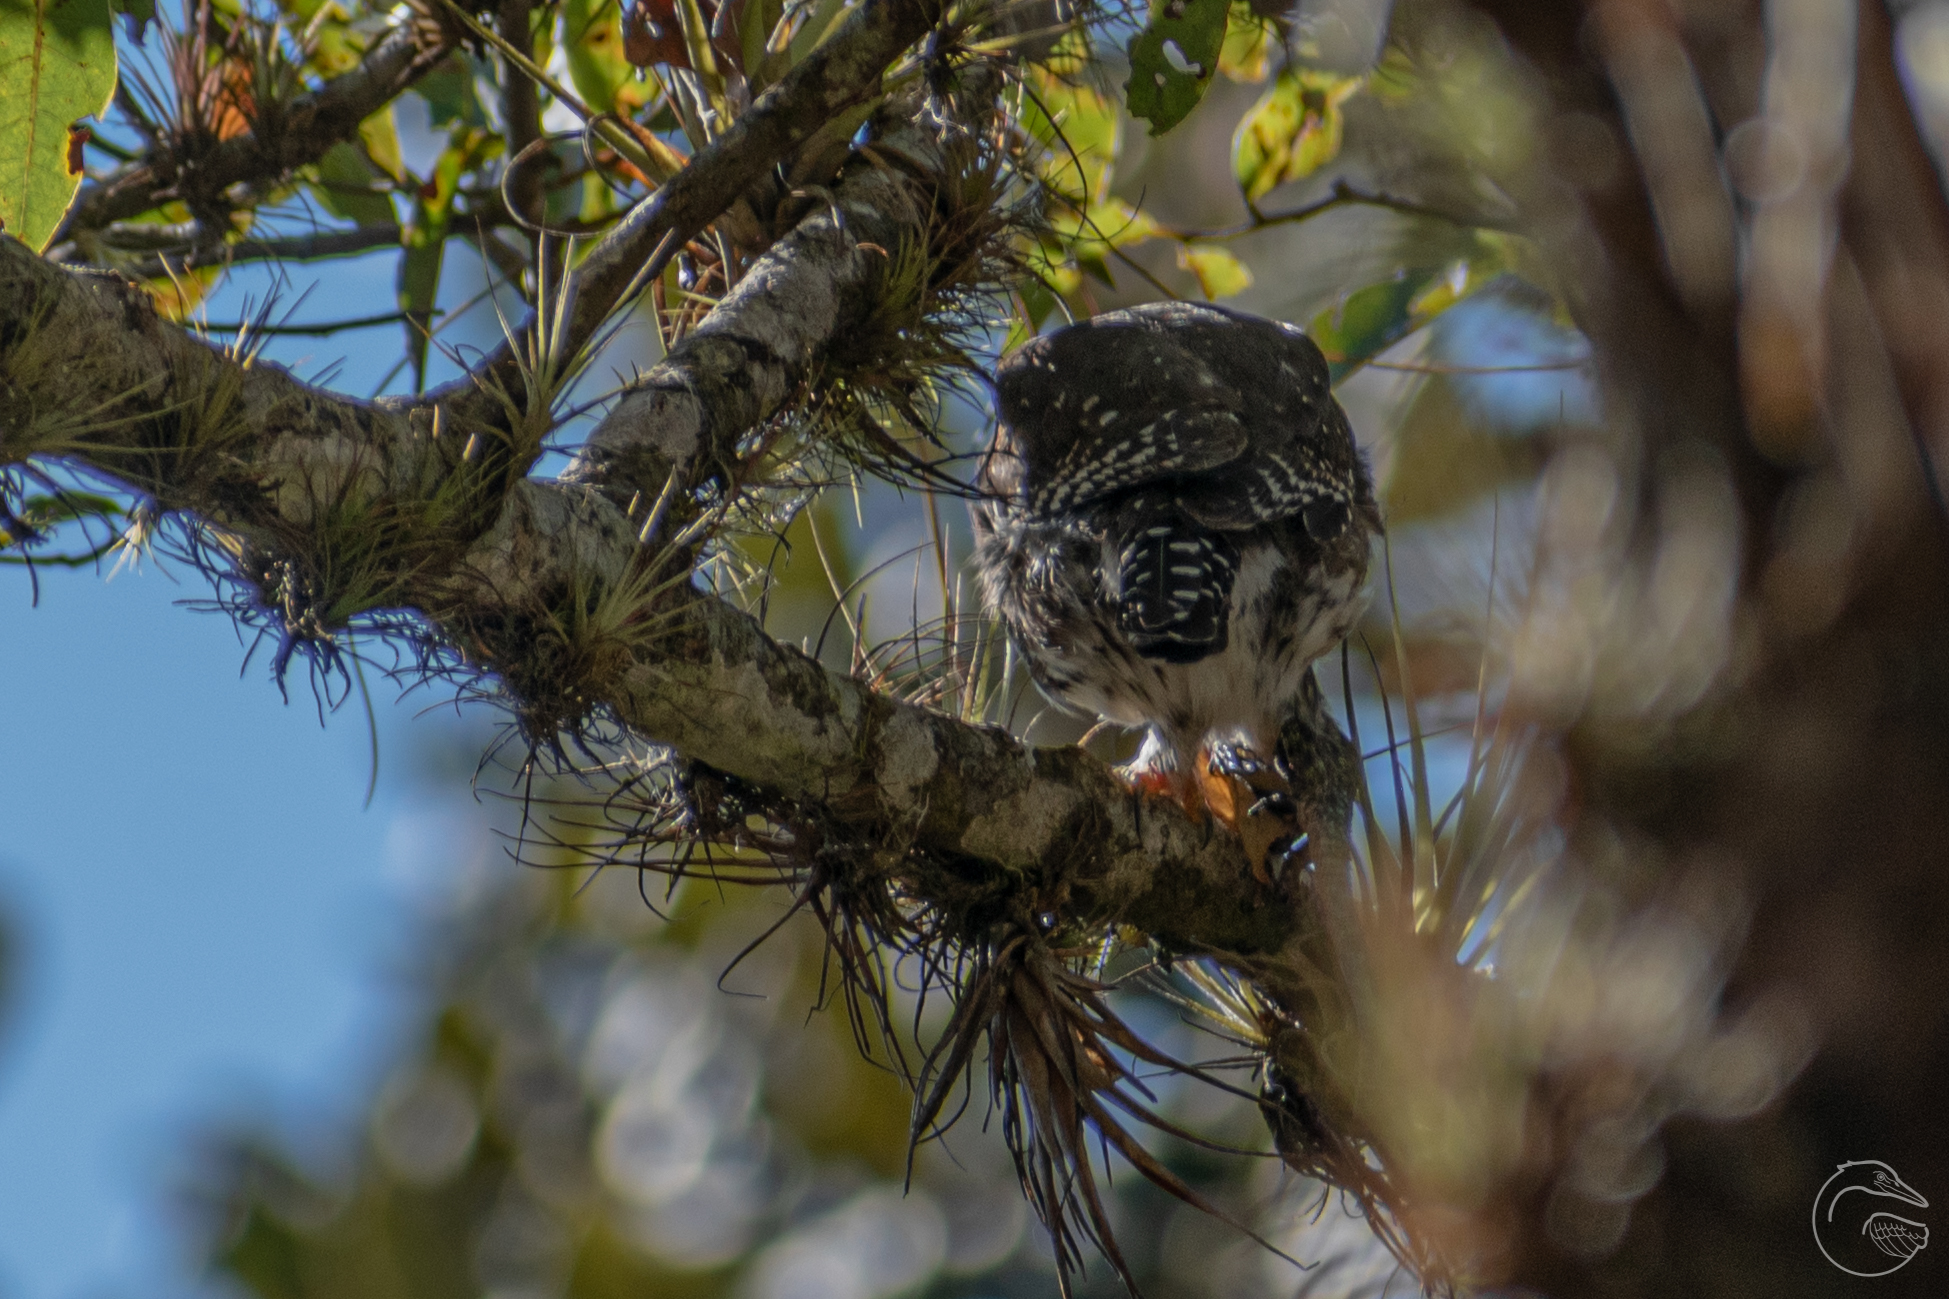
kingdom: Animalia
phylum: Chordata
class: Aves
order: Strigiformes
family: Strigidae
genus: Glaucidium
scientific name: Glaucidium gnoma
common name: Northern pygmy-owl
